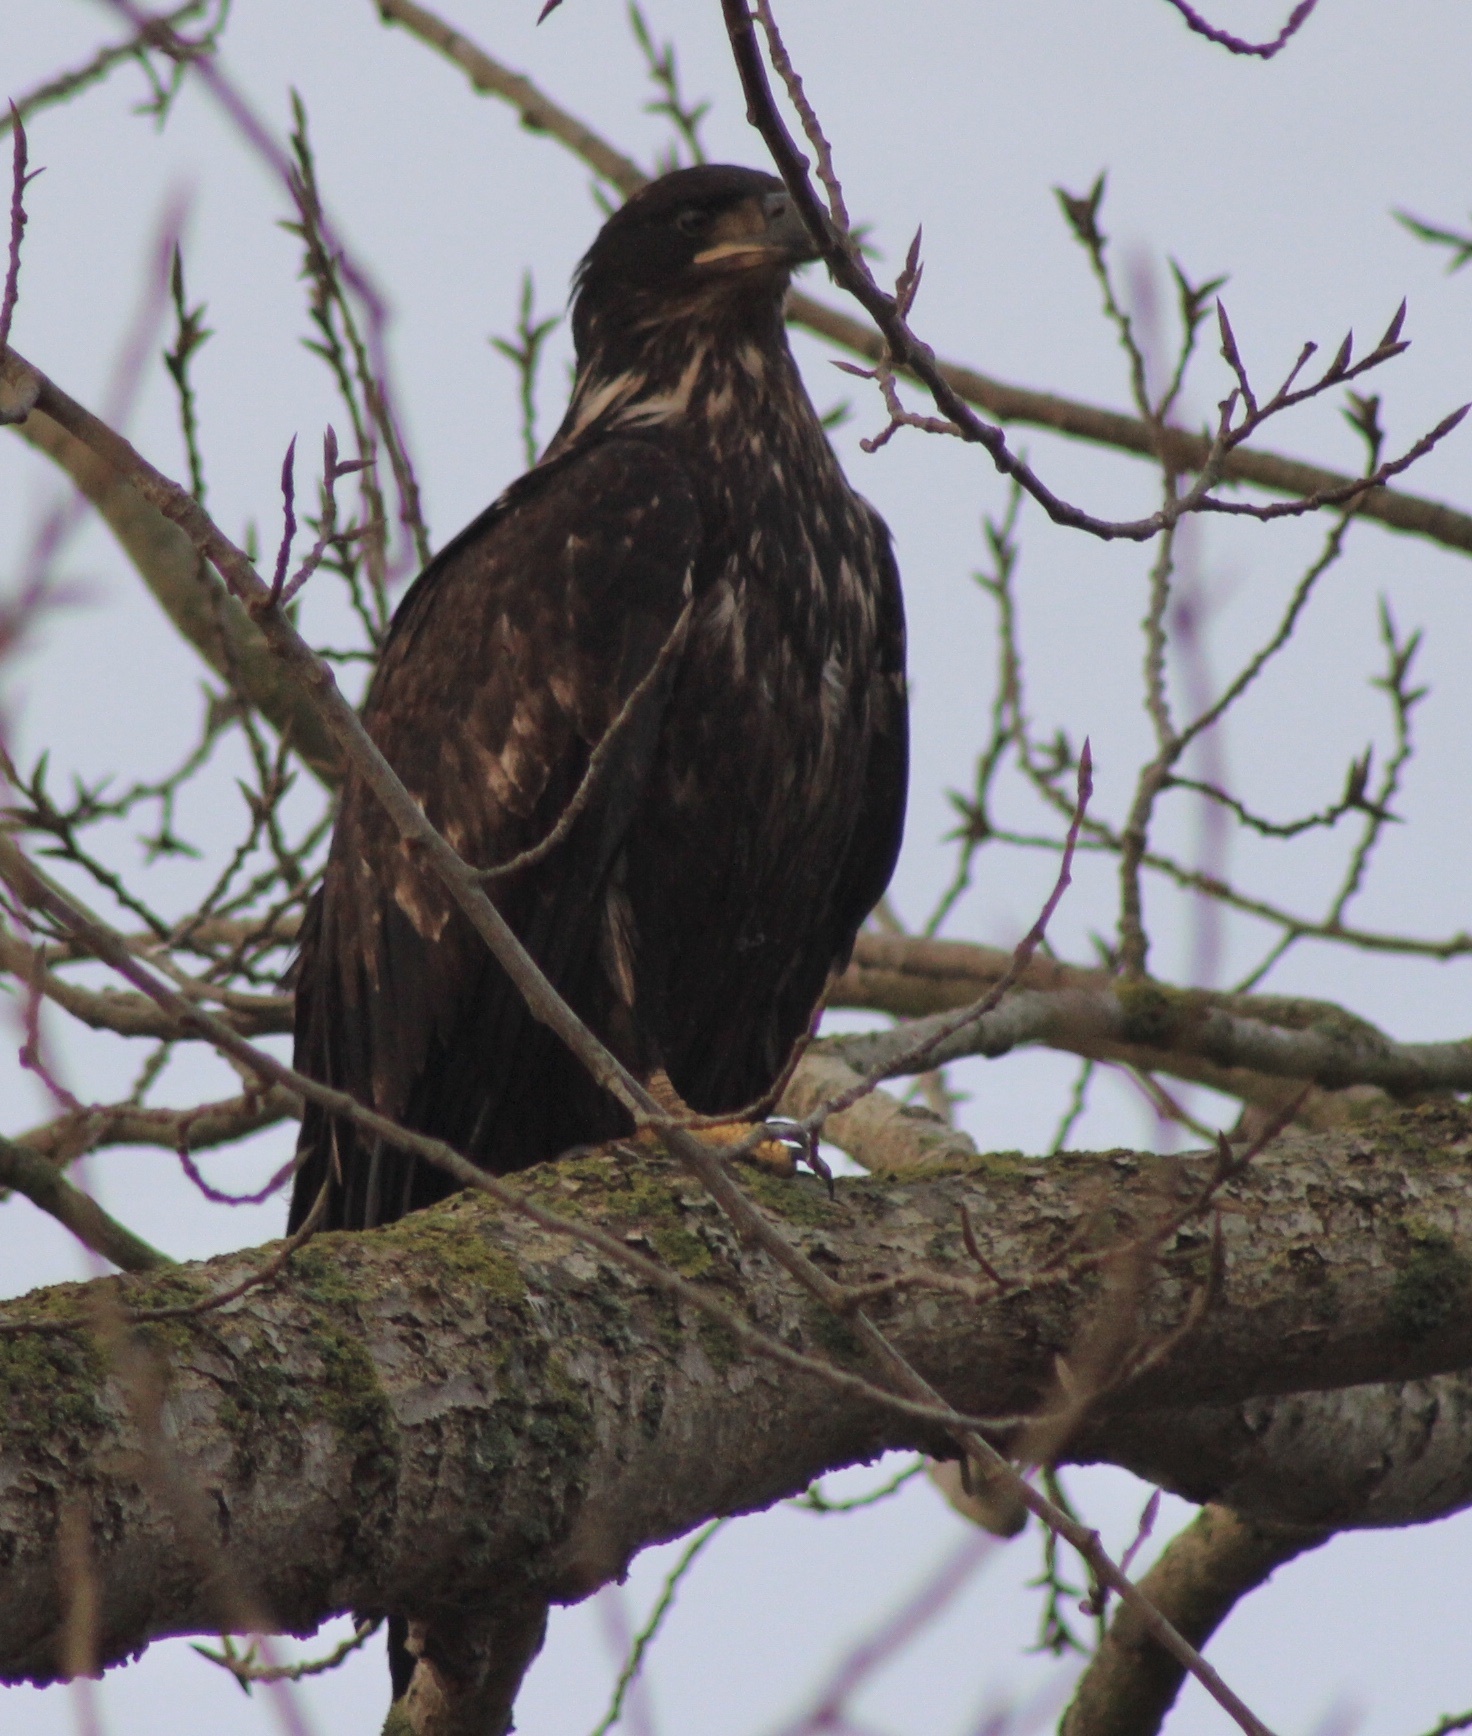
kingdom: Animalia
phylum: Chordata
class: Aves
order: Accipitriformes
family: Accipitridae
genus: Haliaeetus
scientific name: Haliaeetus leucocephalus
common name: Bald eagle
